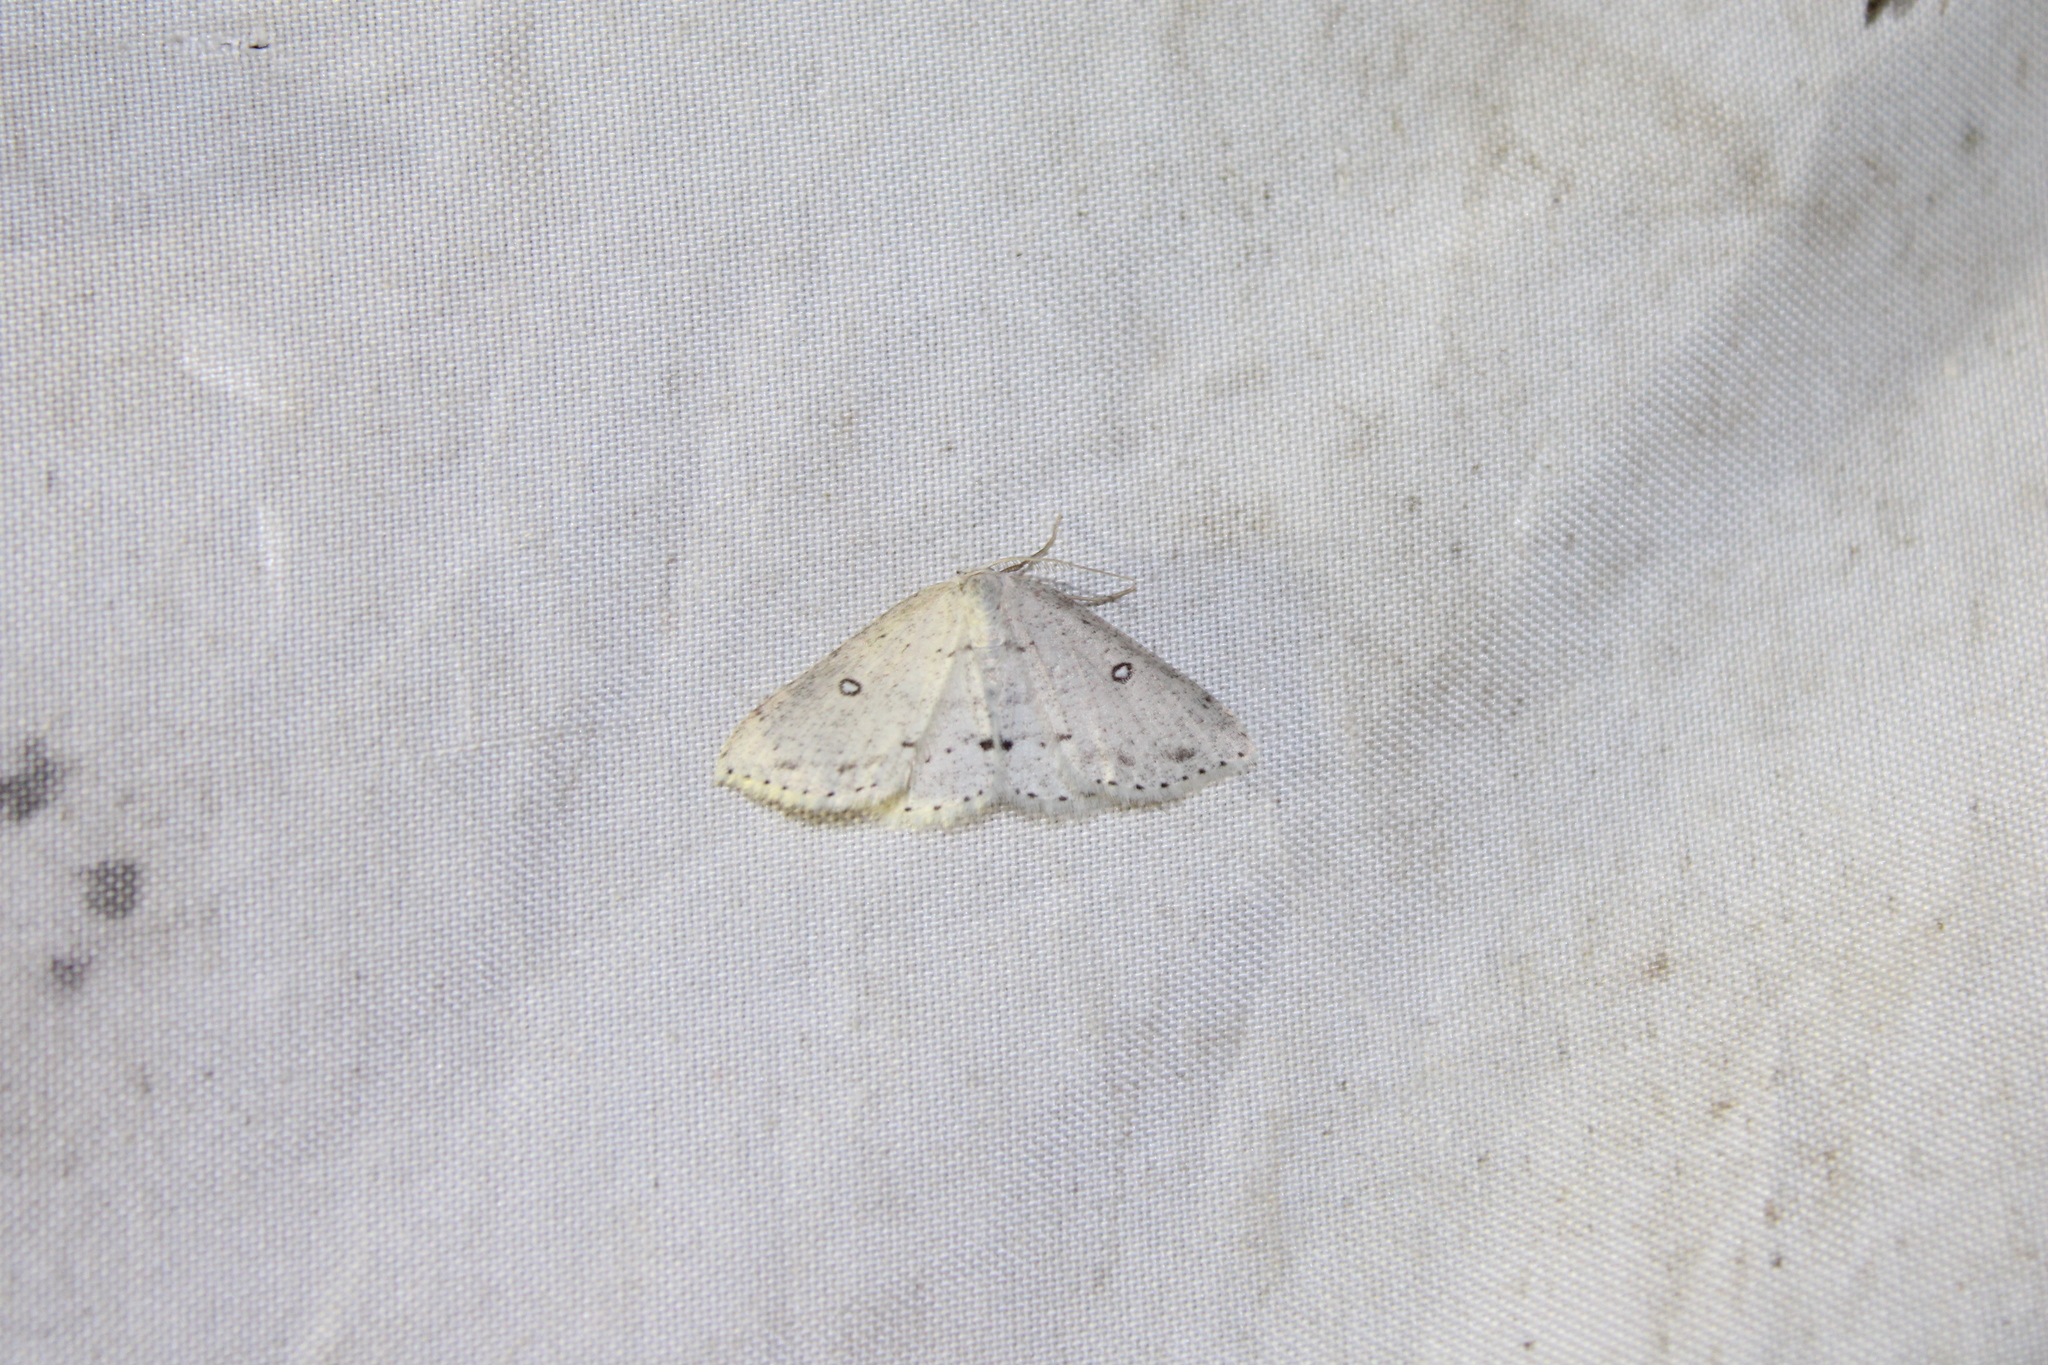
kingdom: Animalia
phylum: Arthropoda
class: Insecta
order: Lepidoptera
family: Geometridae
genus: Cyclophora
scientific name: Cyclophora pendulinaria
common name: Sweet fern geometer
